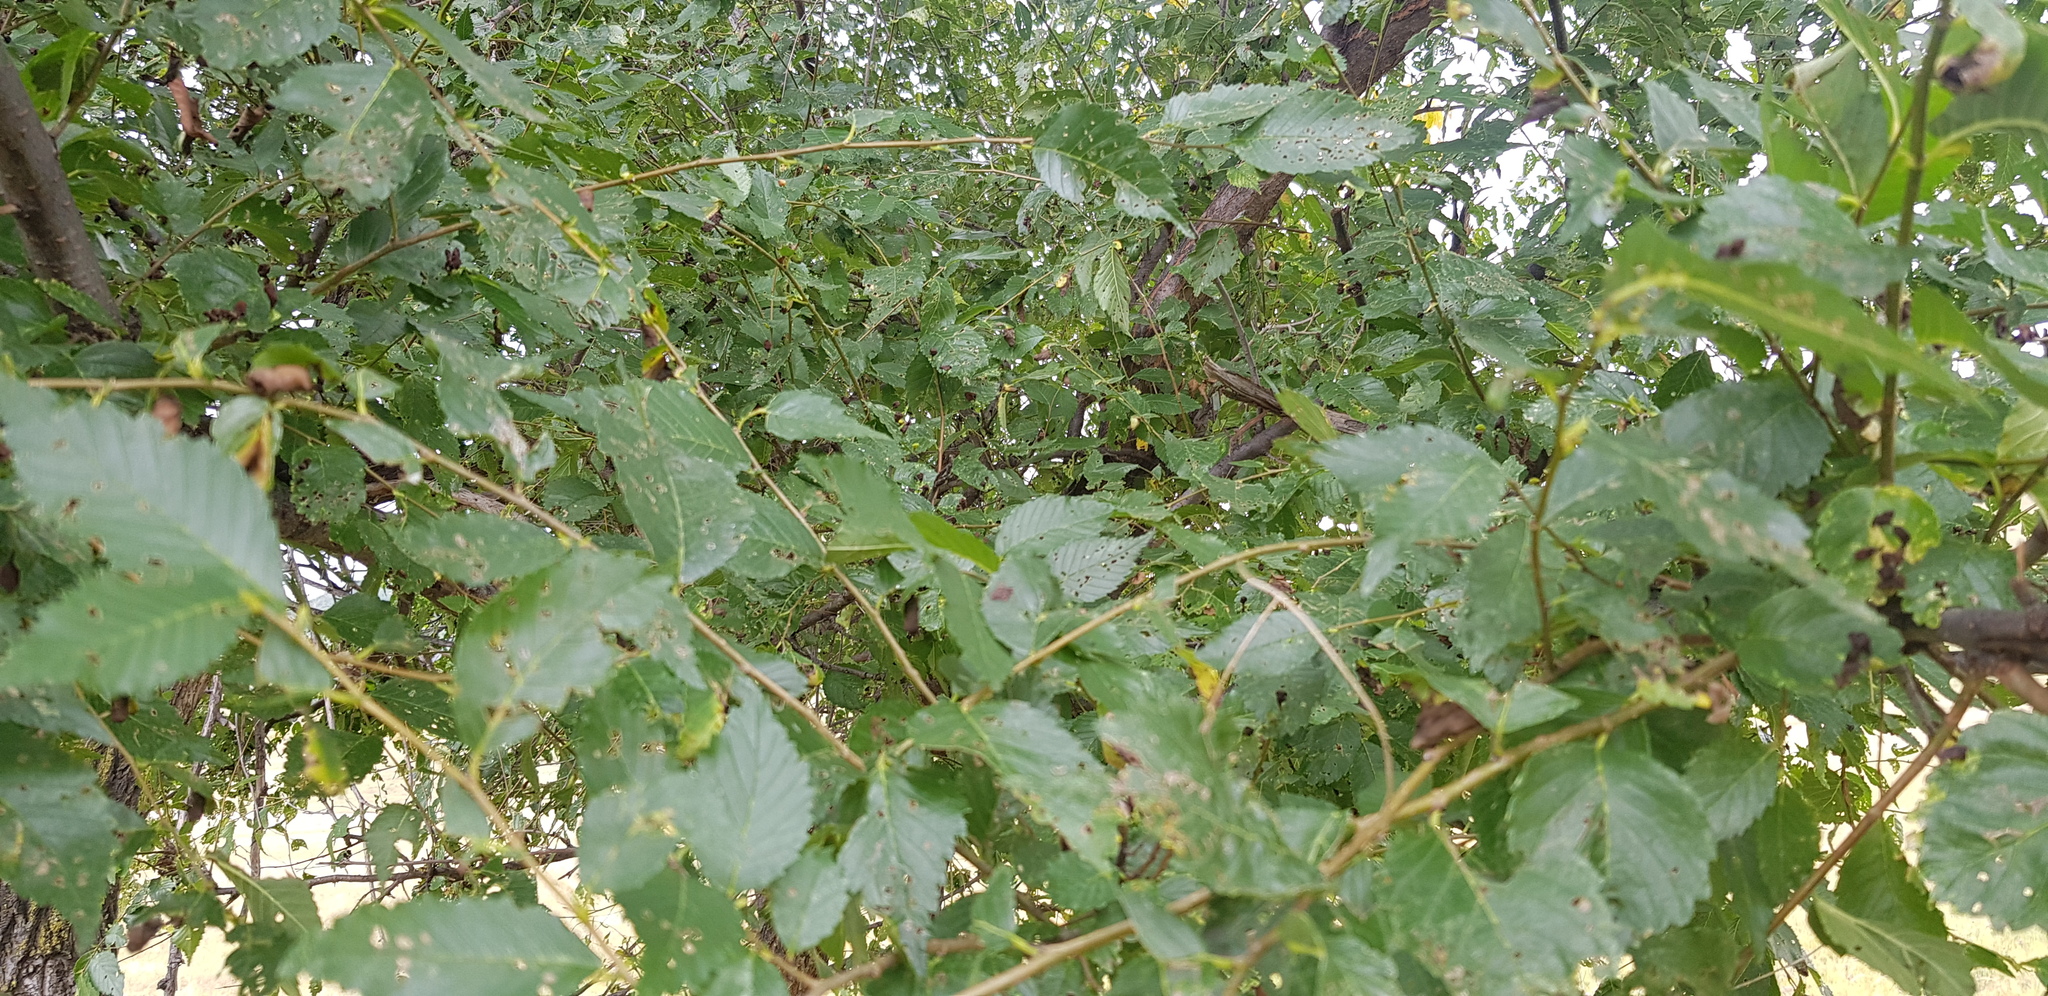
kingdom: Plantae
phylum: Tracheophyta
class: Magnoliopsida
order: Rosales
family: Ulmaceae
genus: Ulmus
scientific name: Ulmus pumila
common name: Siberian elm
